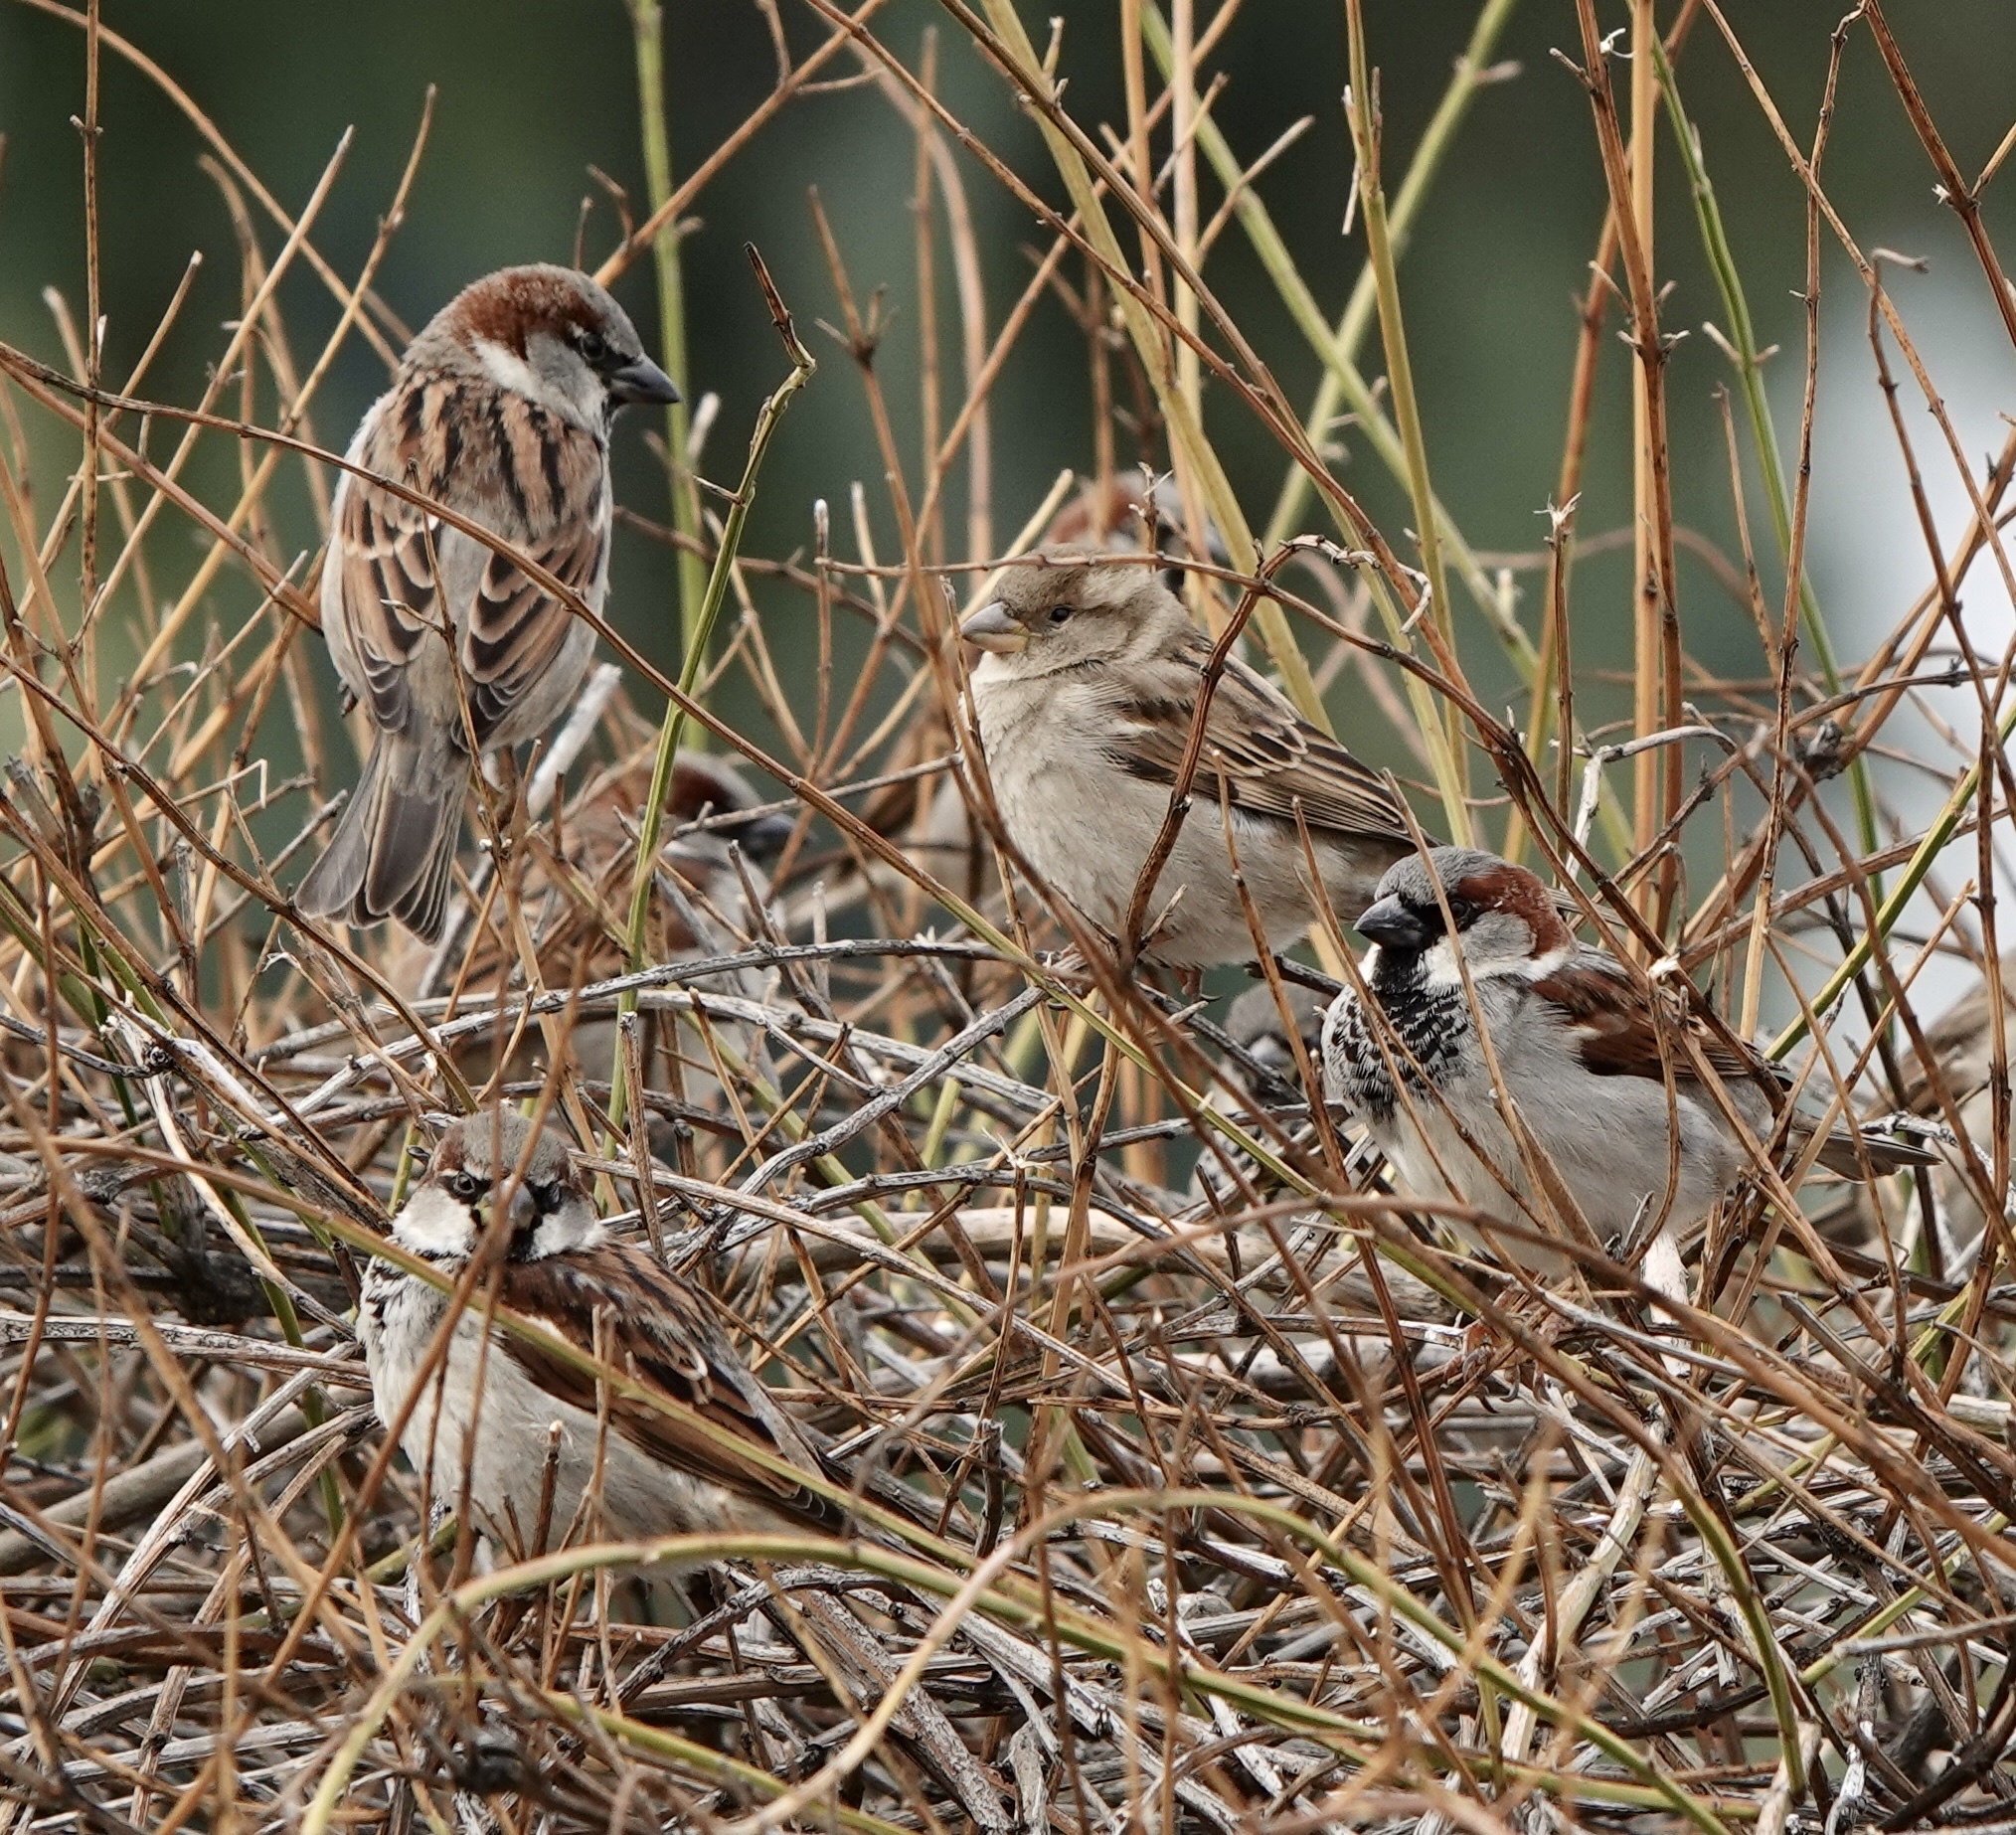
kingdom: Animalia
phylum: Chordata
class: Aves
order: Passeriformes
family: Passeridae
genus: Passer
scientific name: Passer domesticus
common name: House sparrow
